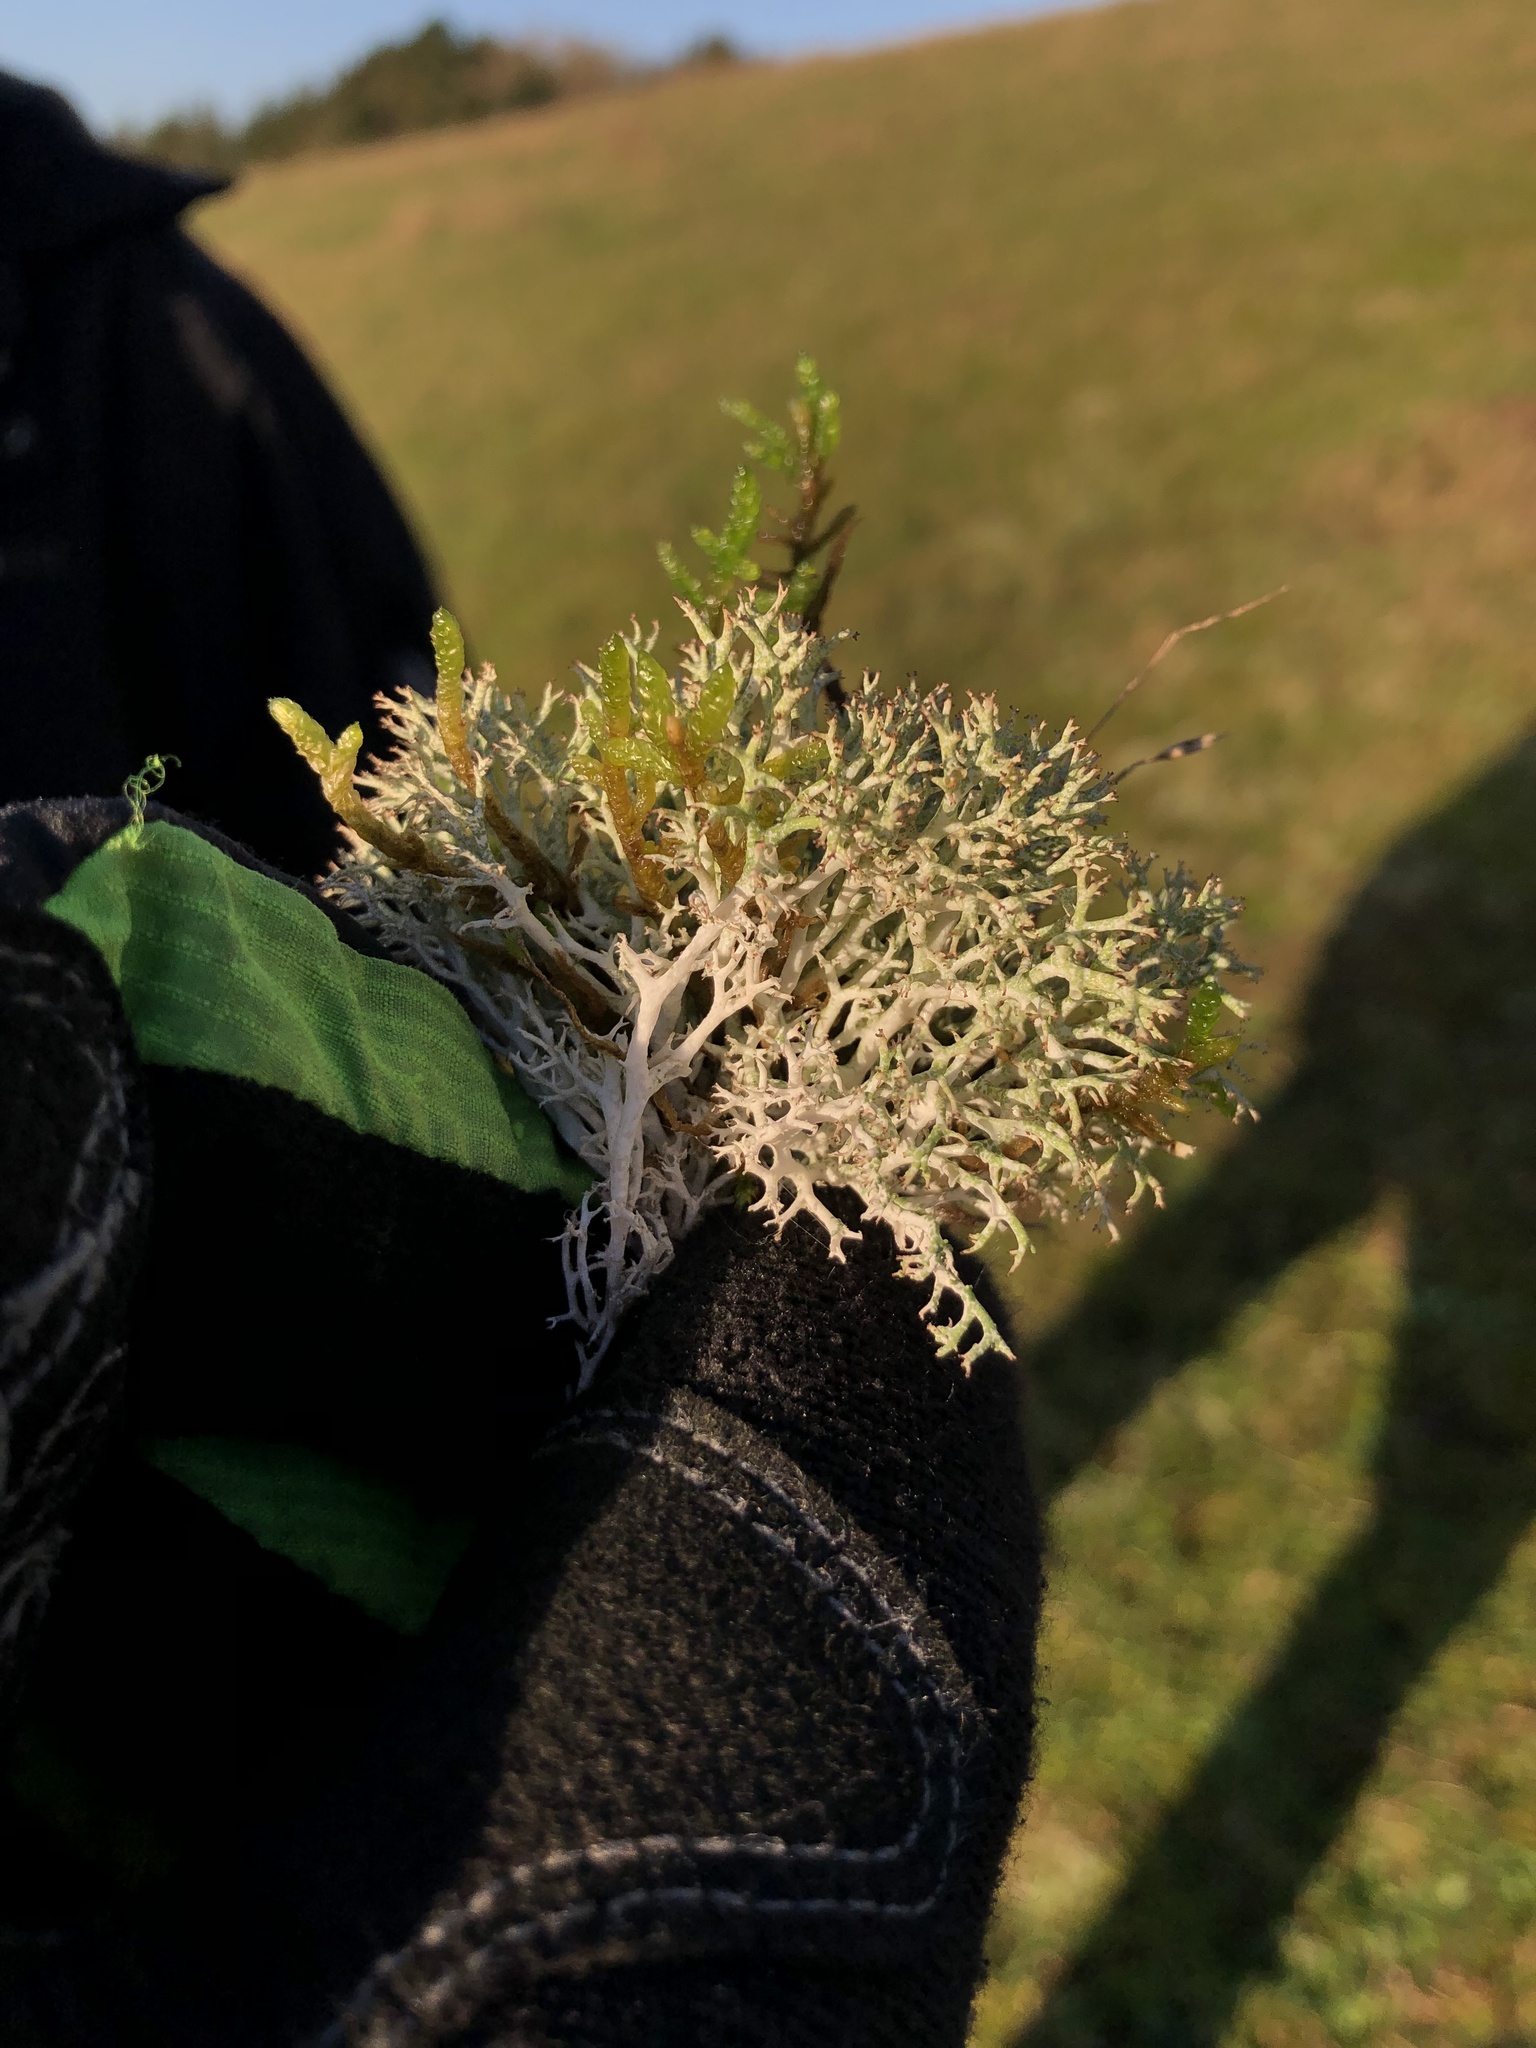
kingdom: Fungi
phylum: Ascomycota
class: Lecanoromycetes
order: Lecanorales
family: Cladoniaceae
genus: Cladonia
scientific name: Cladonia rangiformis
